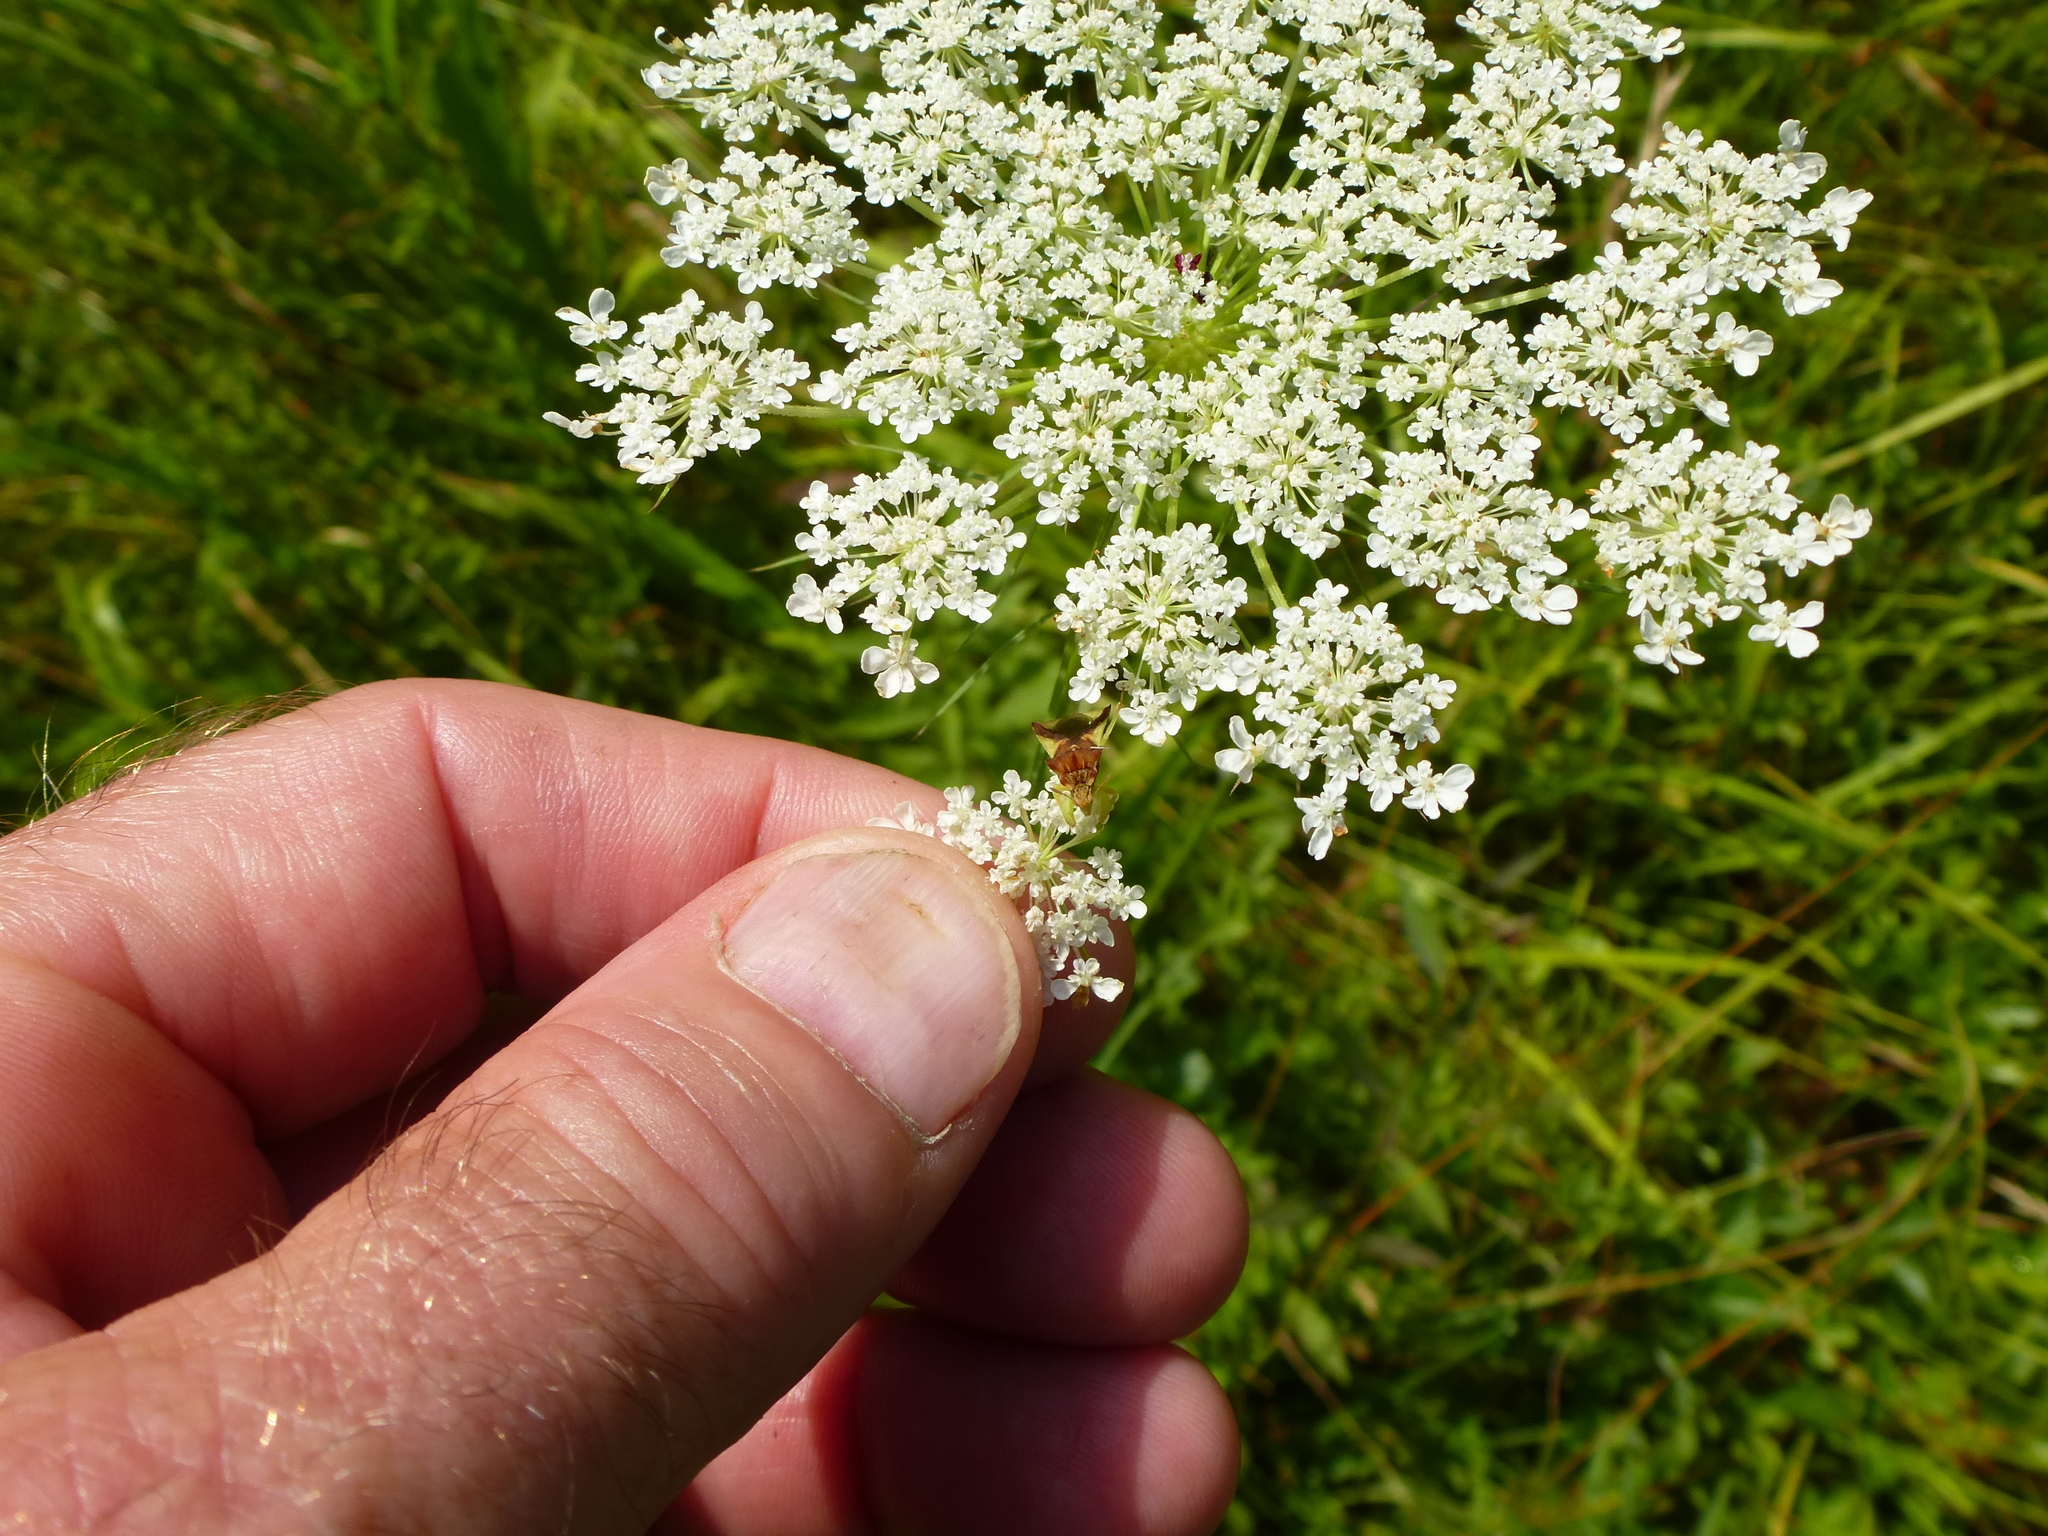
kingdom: Plantae
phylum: Tracheophyta
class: Magnoliopsida
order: Apiales
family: Apiaceae
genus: Daucus
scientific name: Daucus carota
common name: Wild carrot
